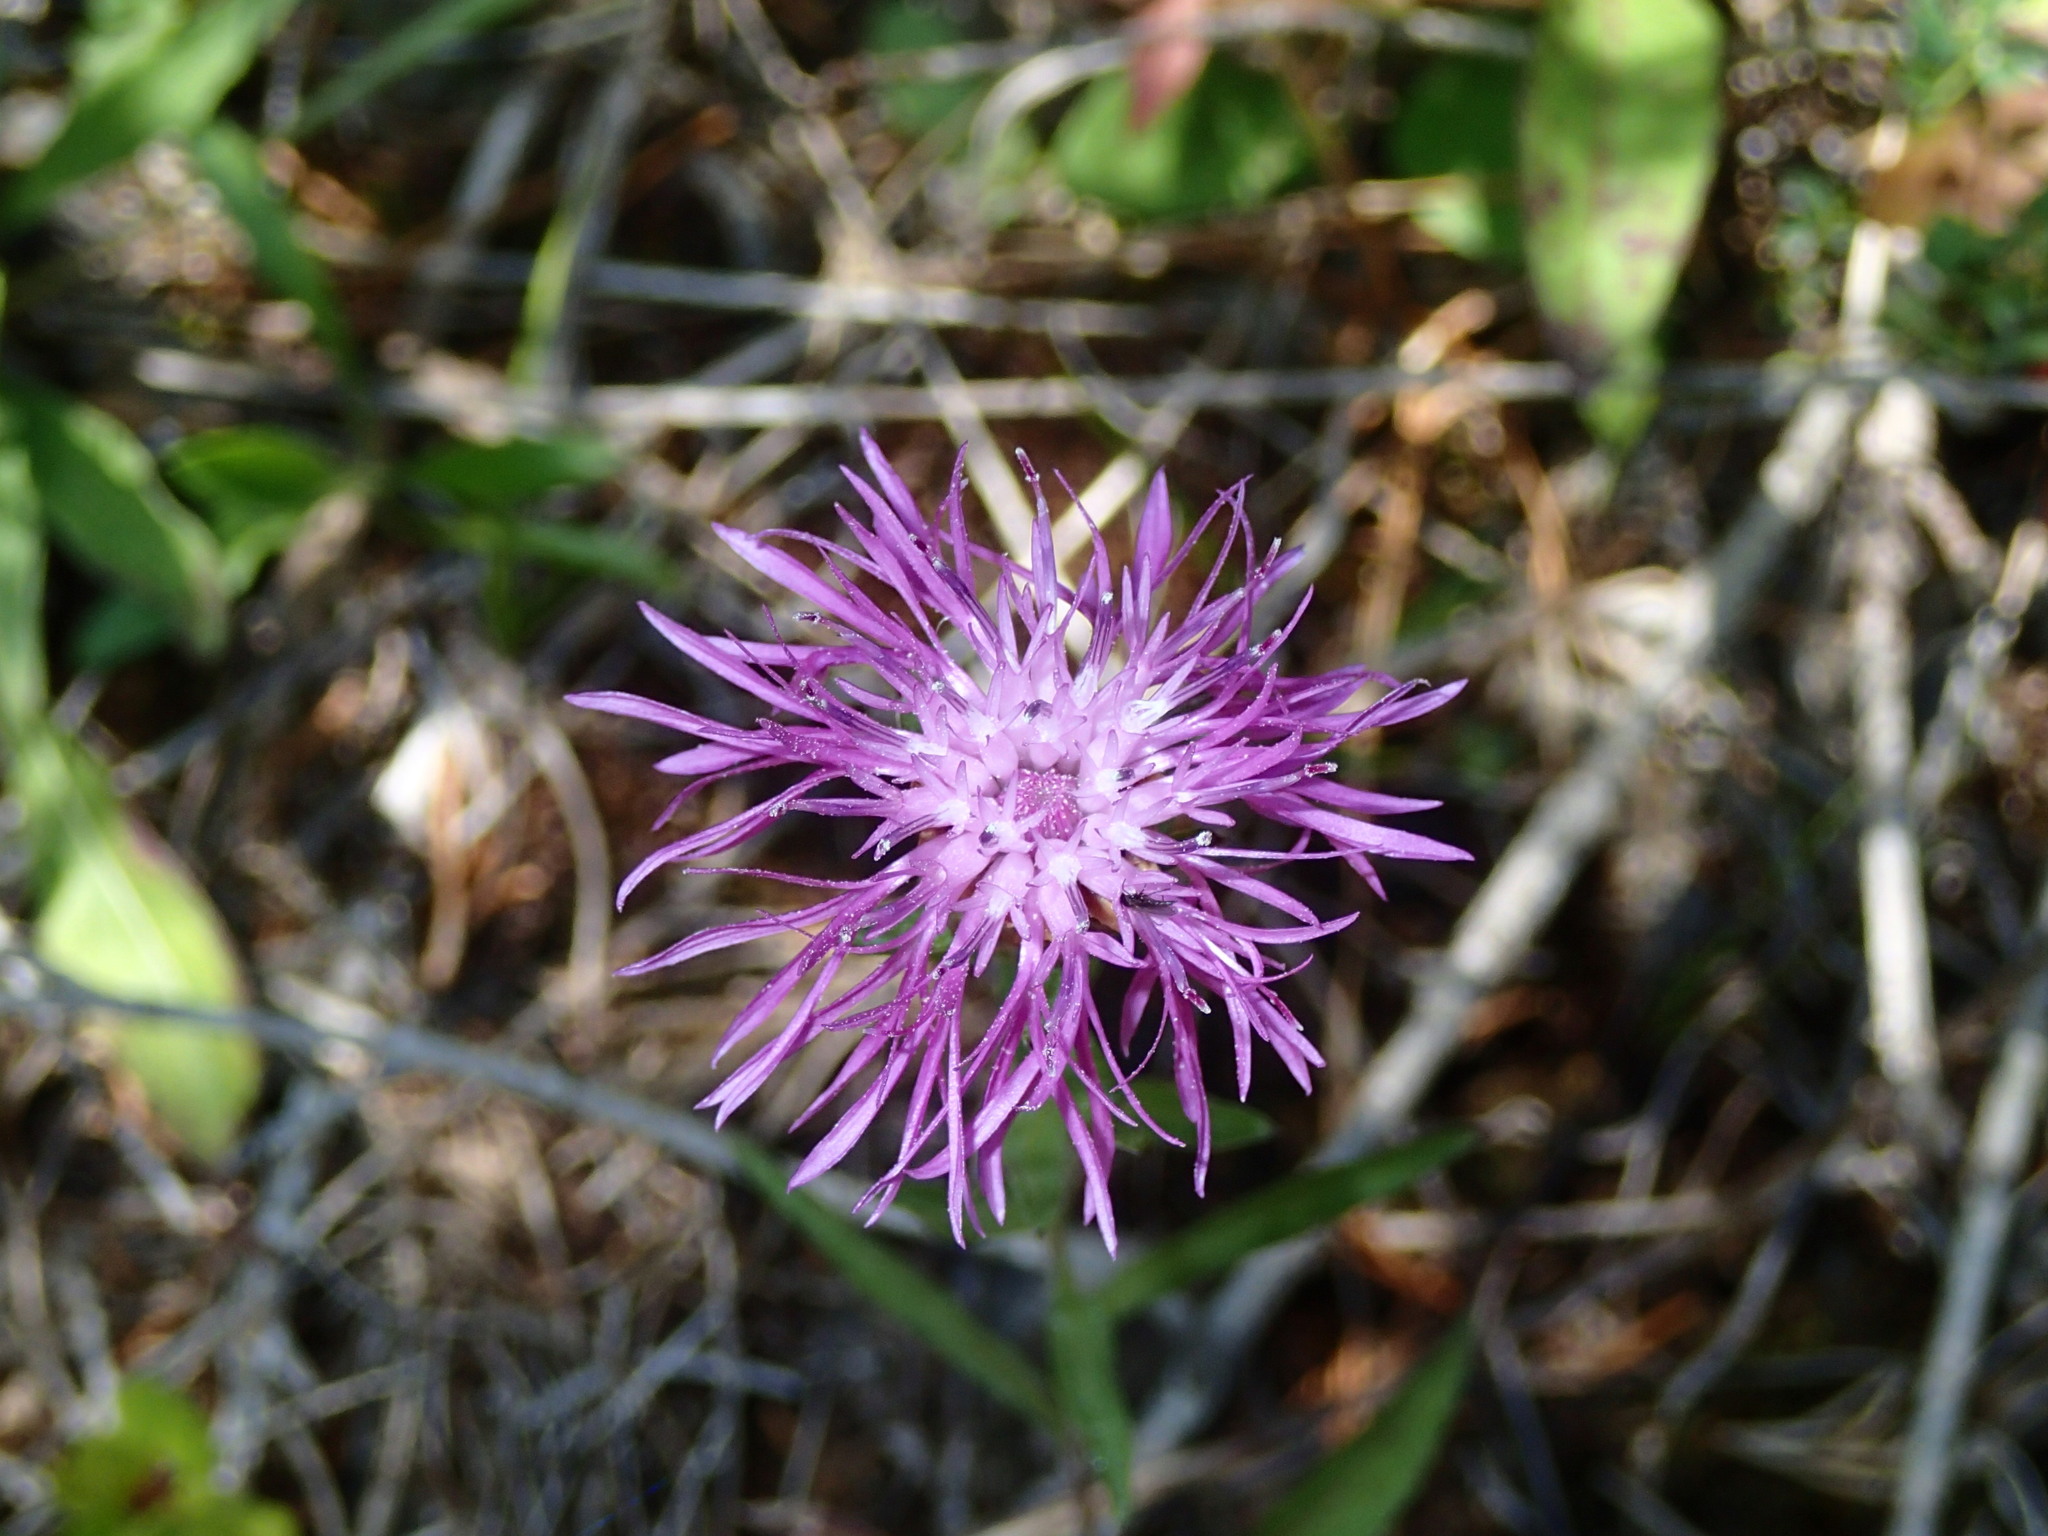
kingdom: Plantae
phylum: Tracheophyta
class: Magnoliopsida
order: Asterales
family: Asteraceae
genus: Centaurea
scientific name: Centaurea jacea
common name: Brown knapweed
